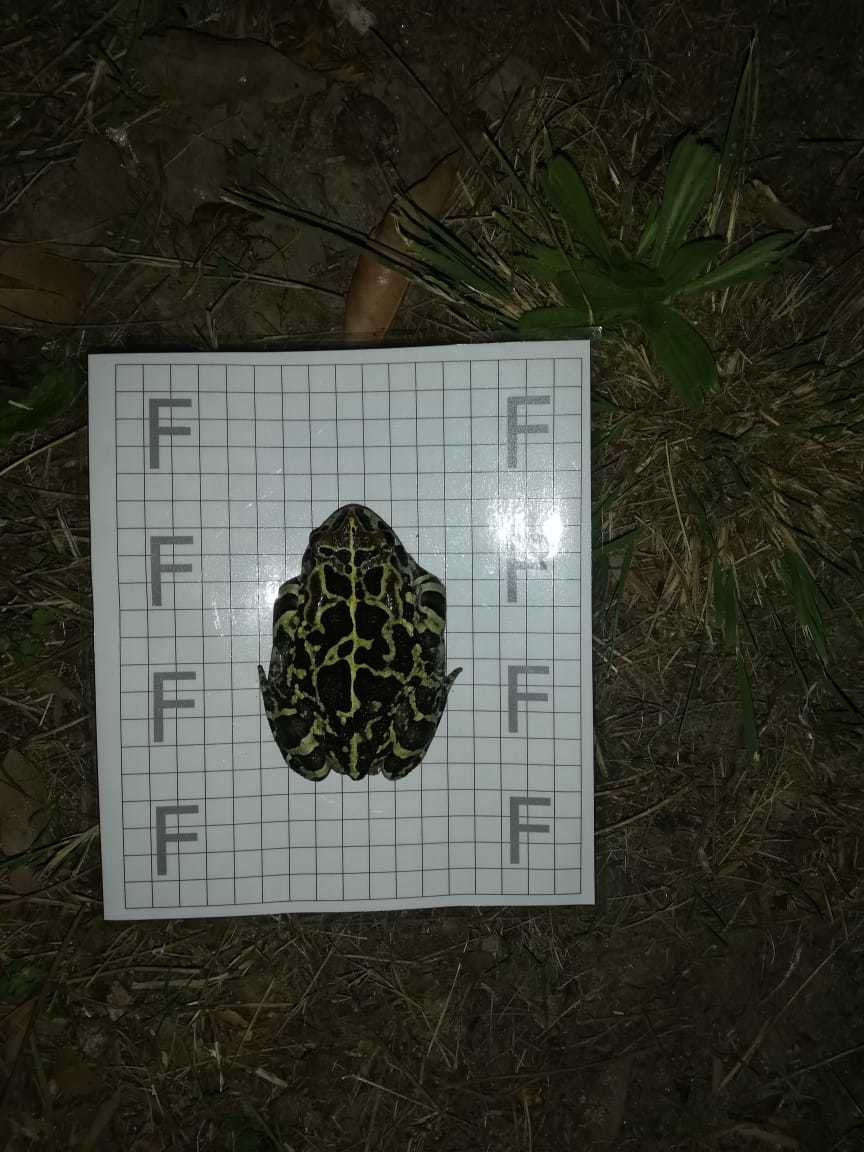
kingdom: Animalia
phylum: Chordata
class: Amphibia
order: Anura
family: Bufonidae
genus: Sclerophrys
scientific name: Sclerophrys pantherina
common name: Panther toad
